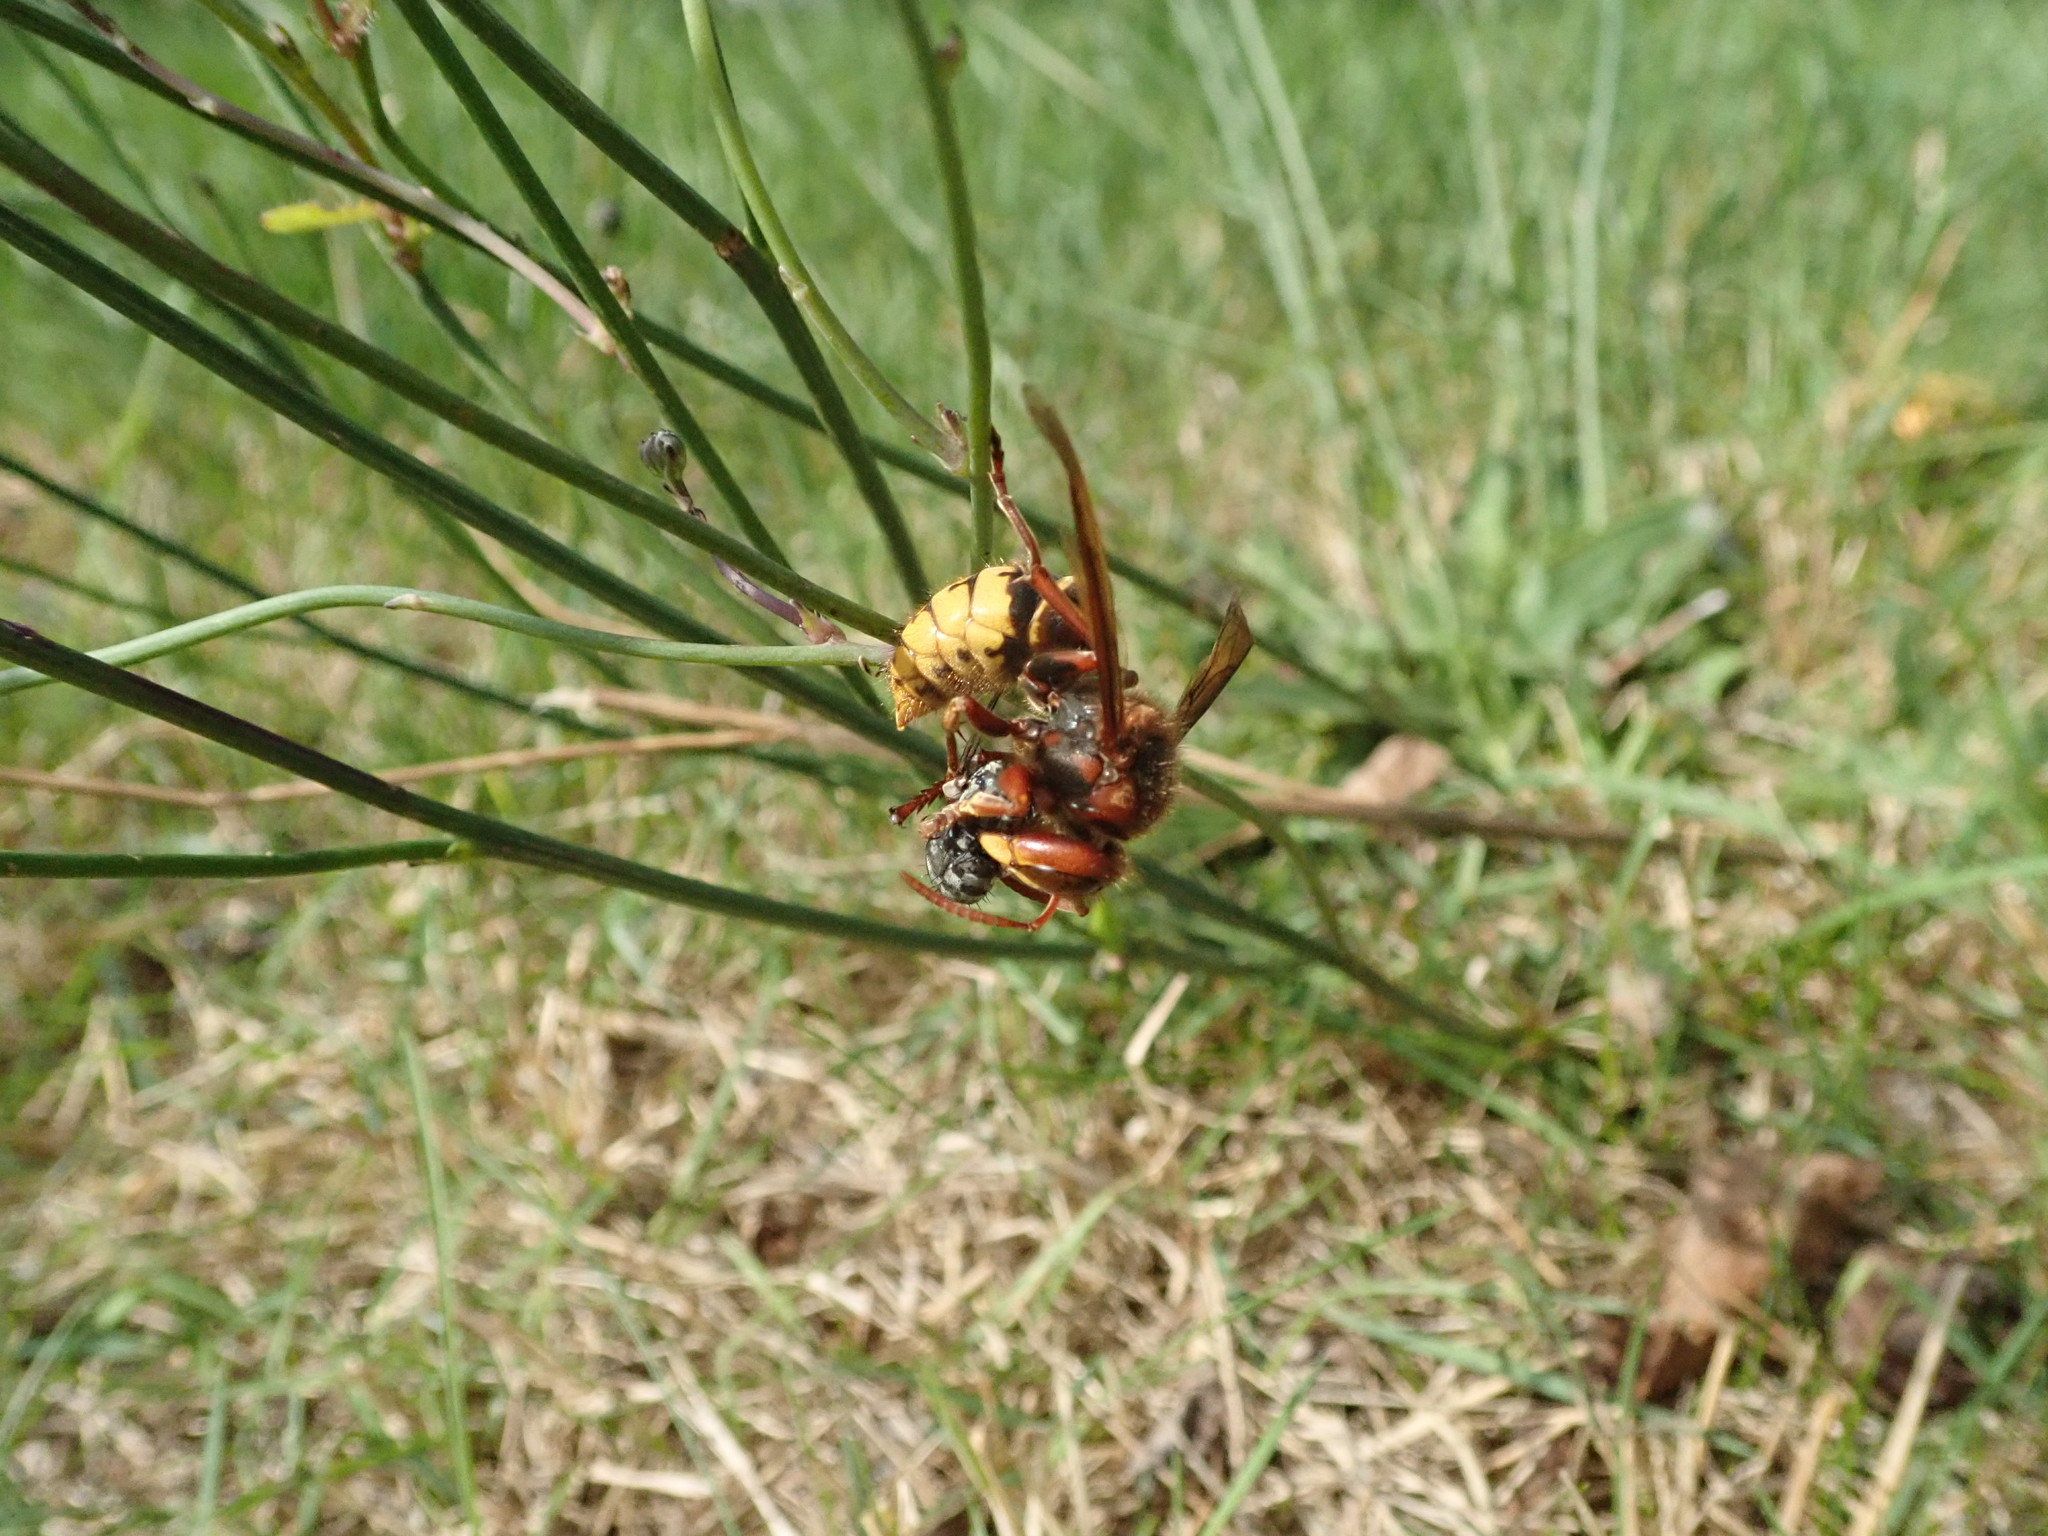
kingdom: Animalia
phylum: Arthropoda
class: Insecta
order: Hymenoptera
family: Vespidae
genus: Vespa
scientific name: Vespa crabro
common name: Hornet
